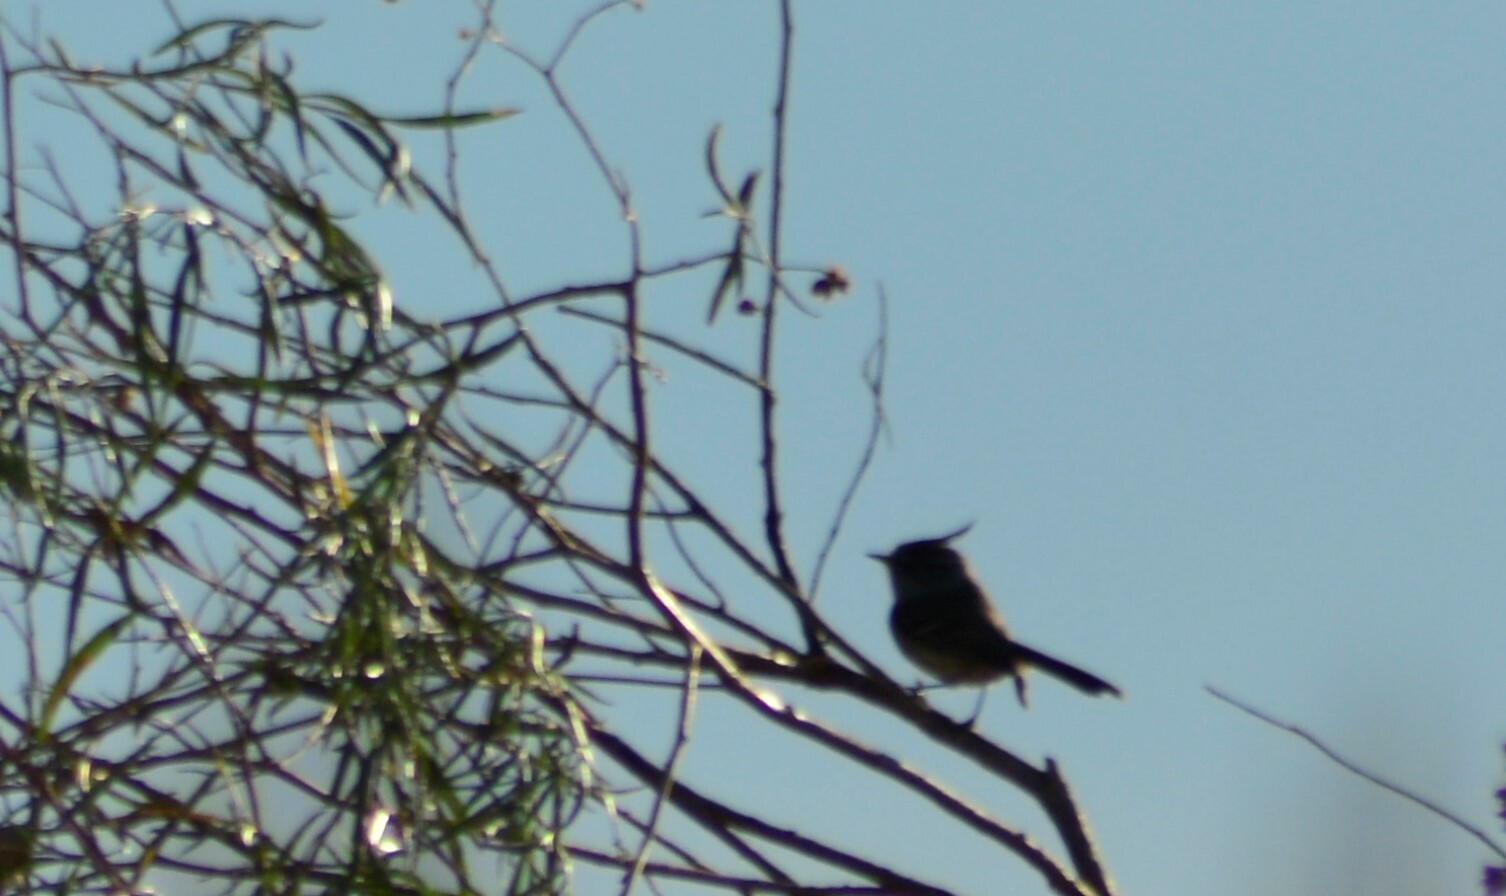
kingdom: Animalia
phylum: Chordata
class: Aves
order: Passeriformes
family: Tyrannidae
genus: Anairetes
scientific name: Anairetes parulus
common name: Tufted tit-tyrant
